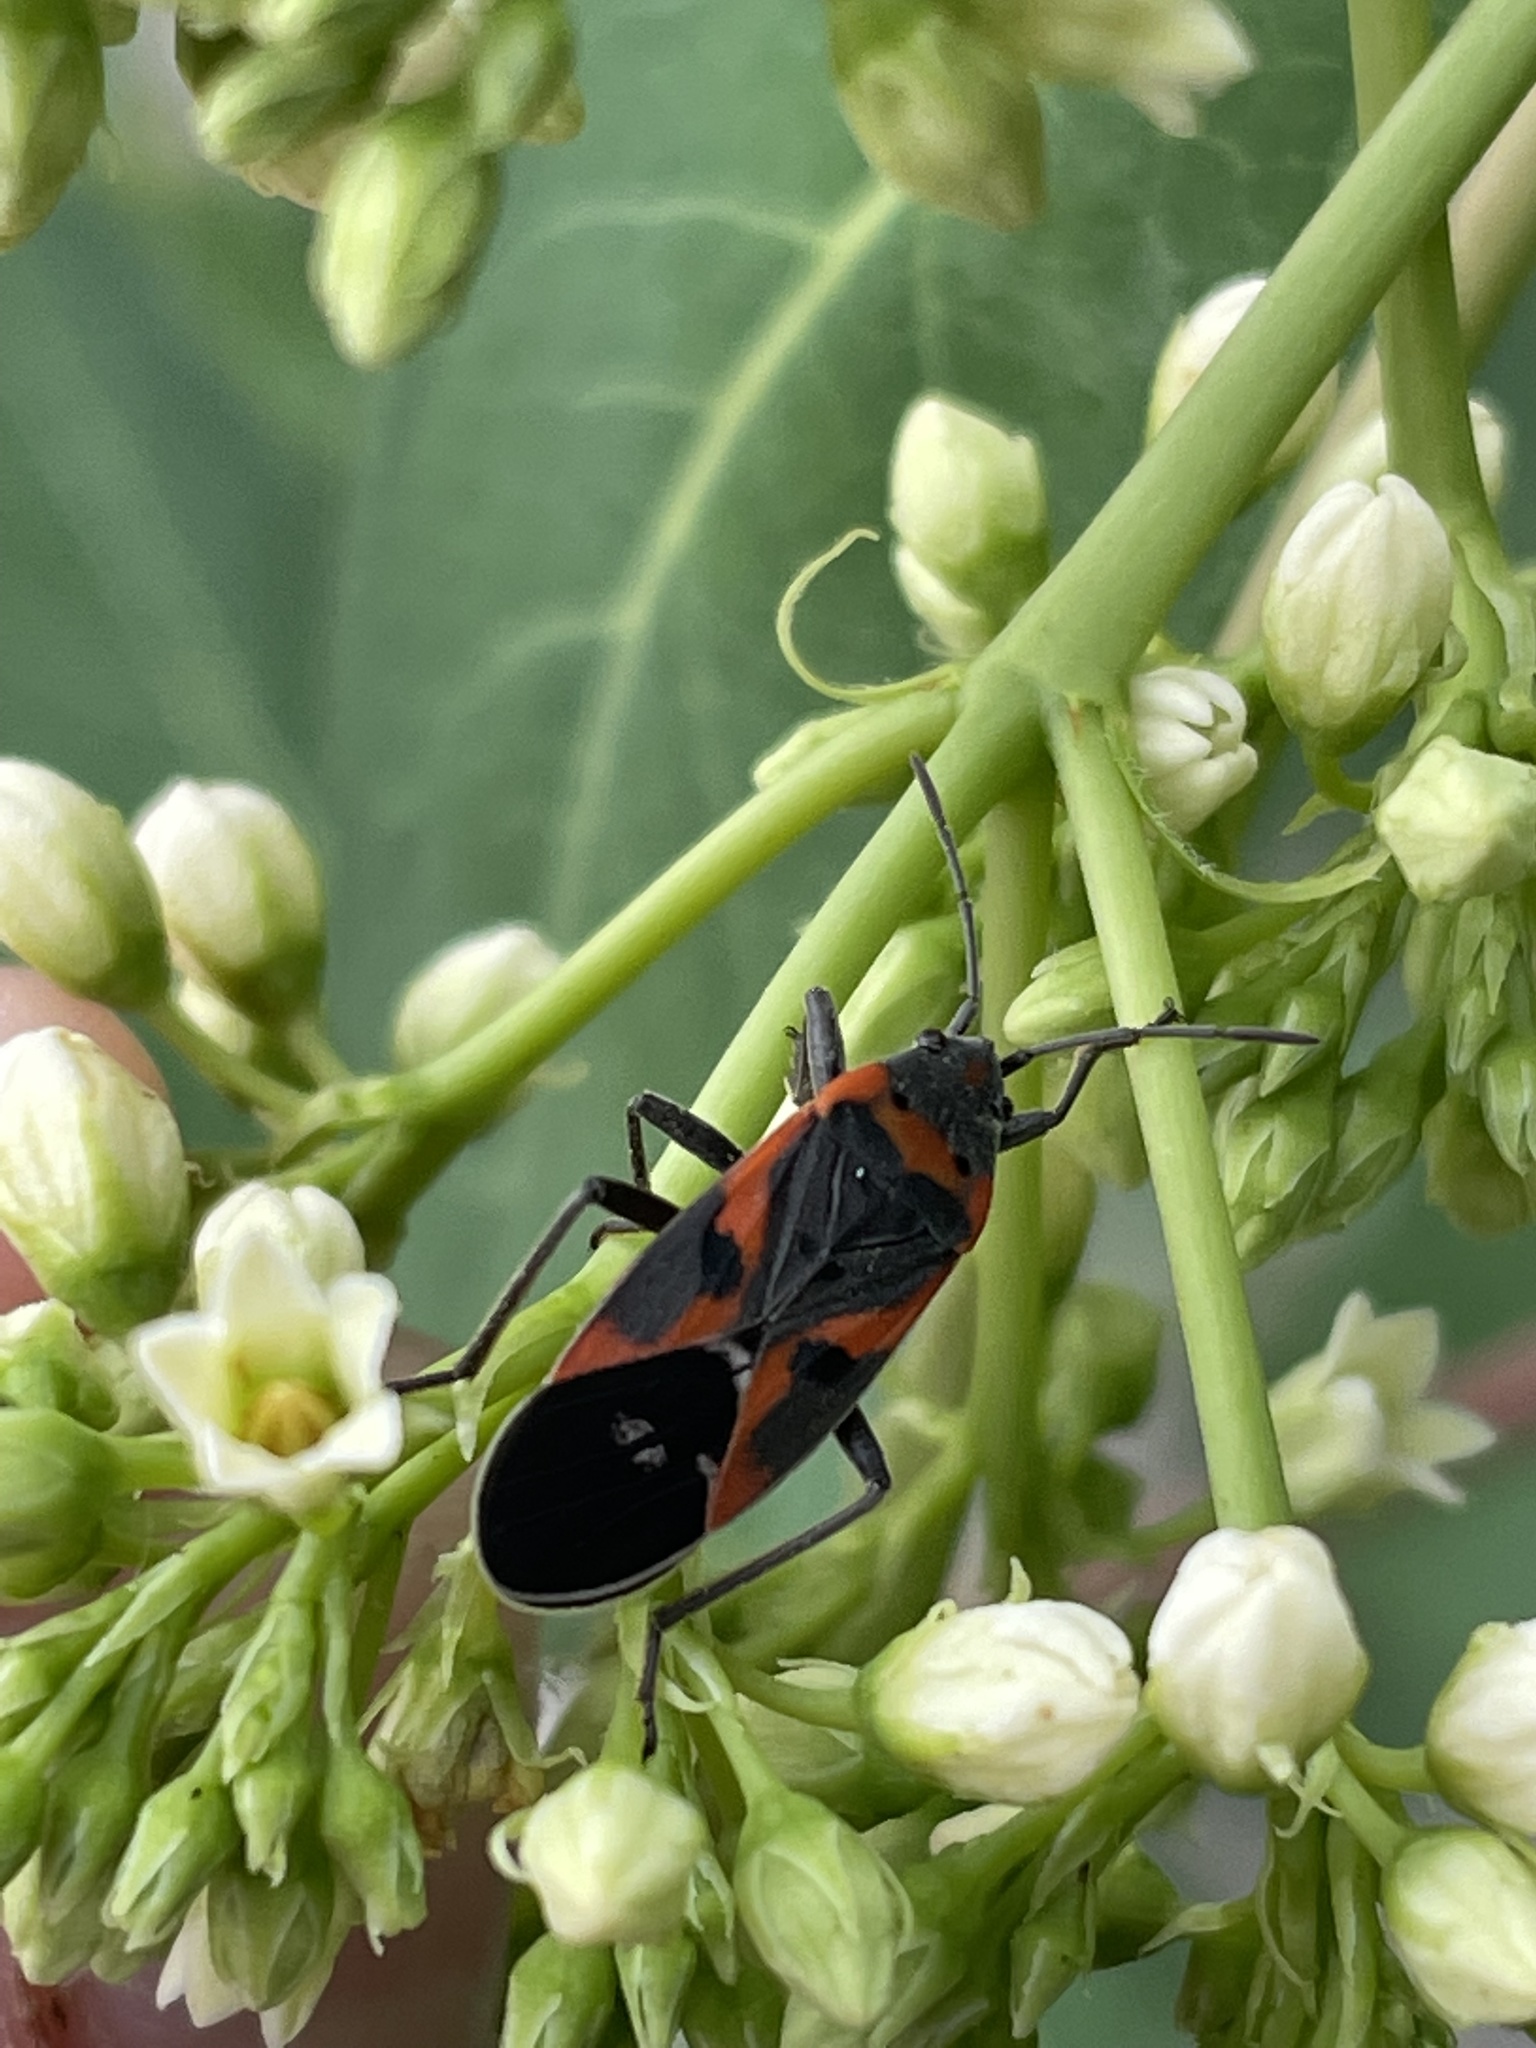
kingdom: Animalia
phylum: Arthropoda
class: Insecta
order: Hemiptera
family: Lygaeidae
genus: Lygaeus
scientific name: Lygaeus kalmii
